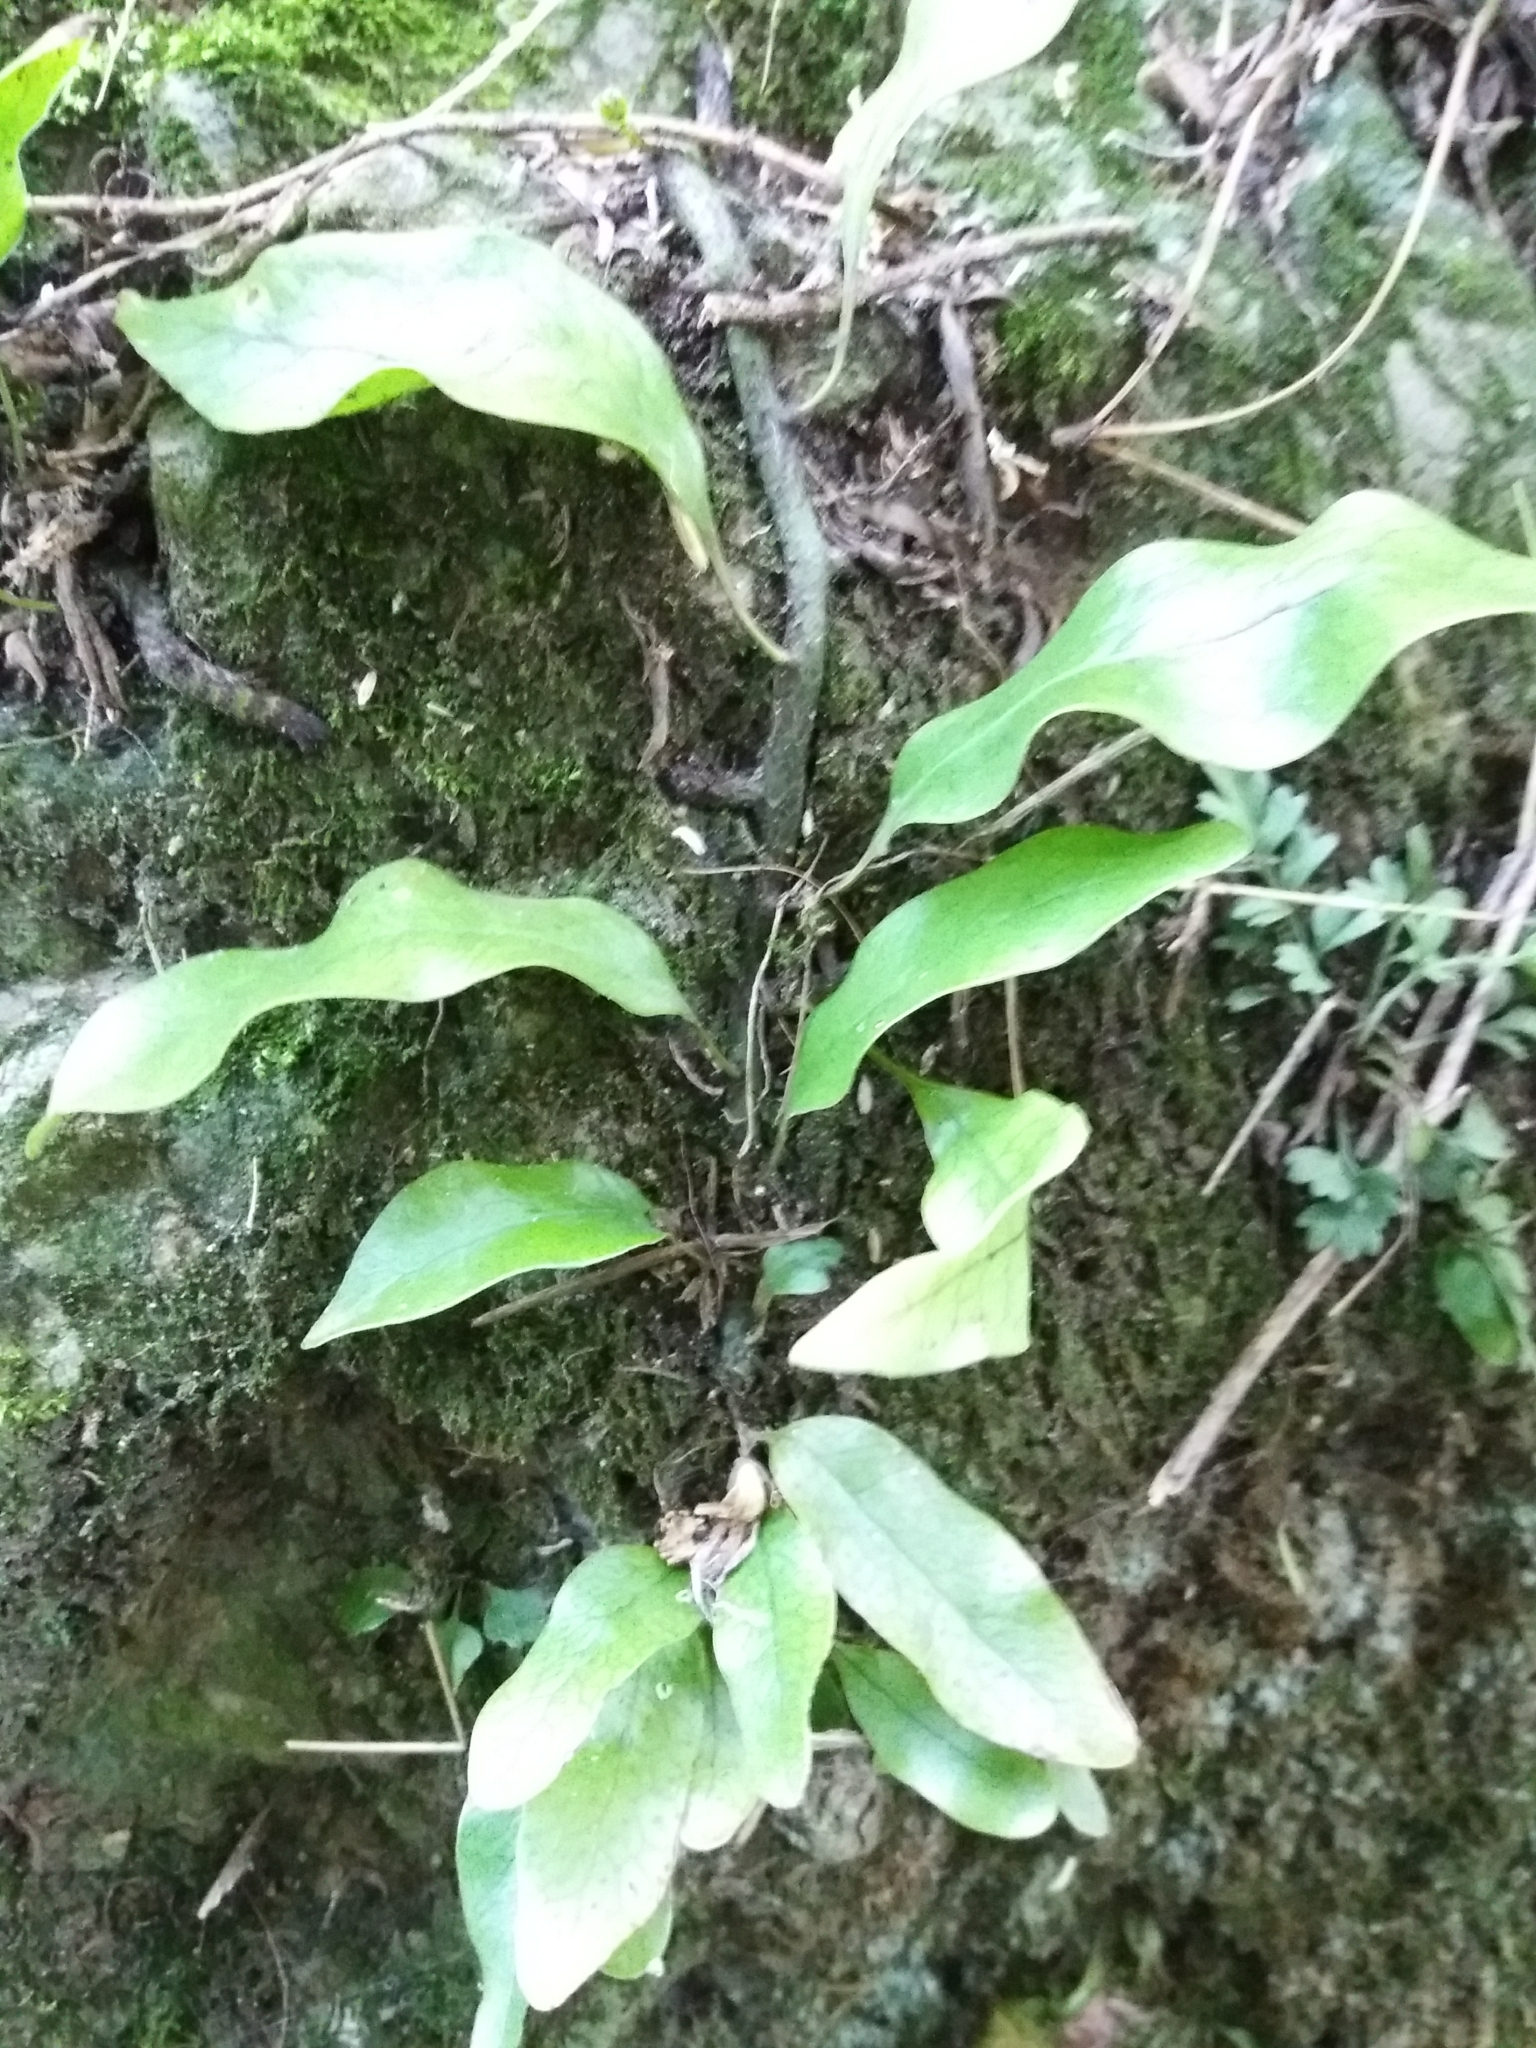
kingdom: Plantae
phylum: Tracheophyta
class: Polypodiopsida
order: Polypodiales
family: Polypodiaceae
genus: Lecanopteris
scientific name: Lecanopteris pustulata
